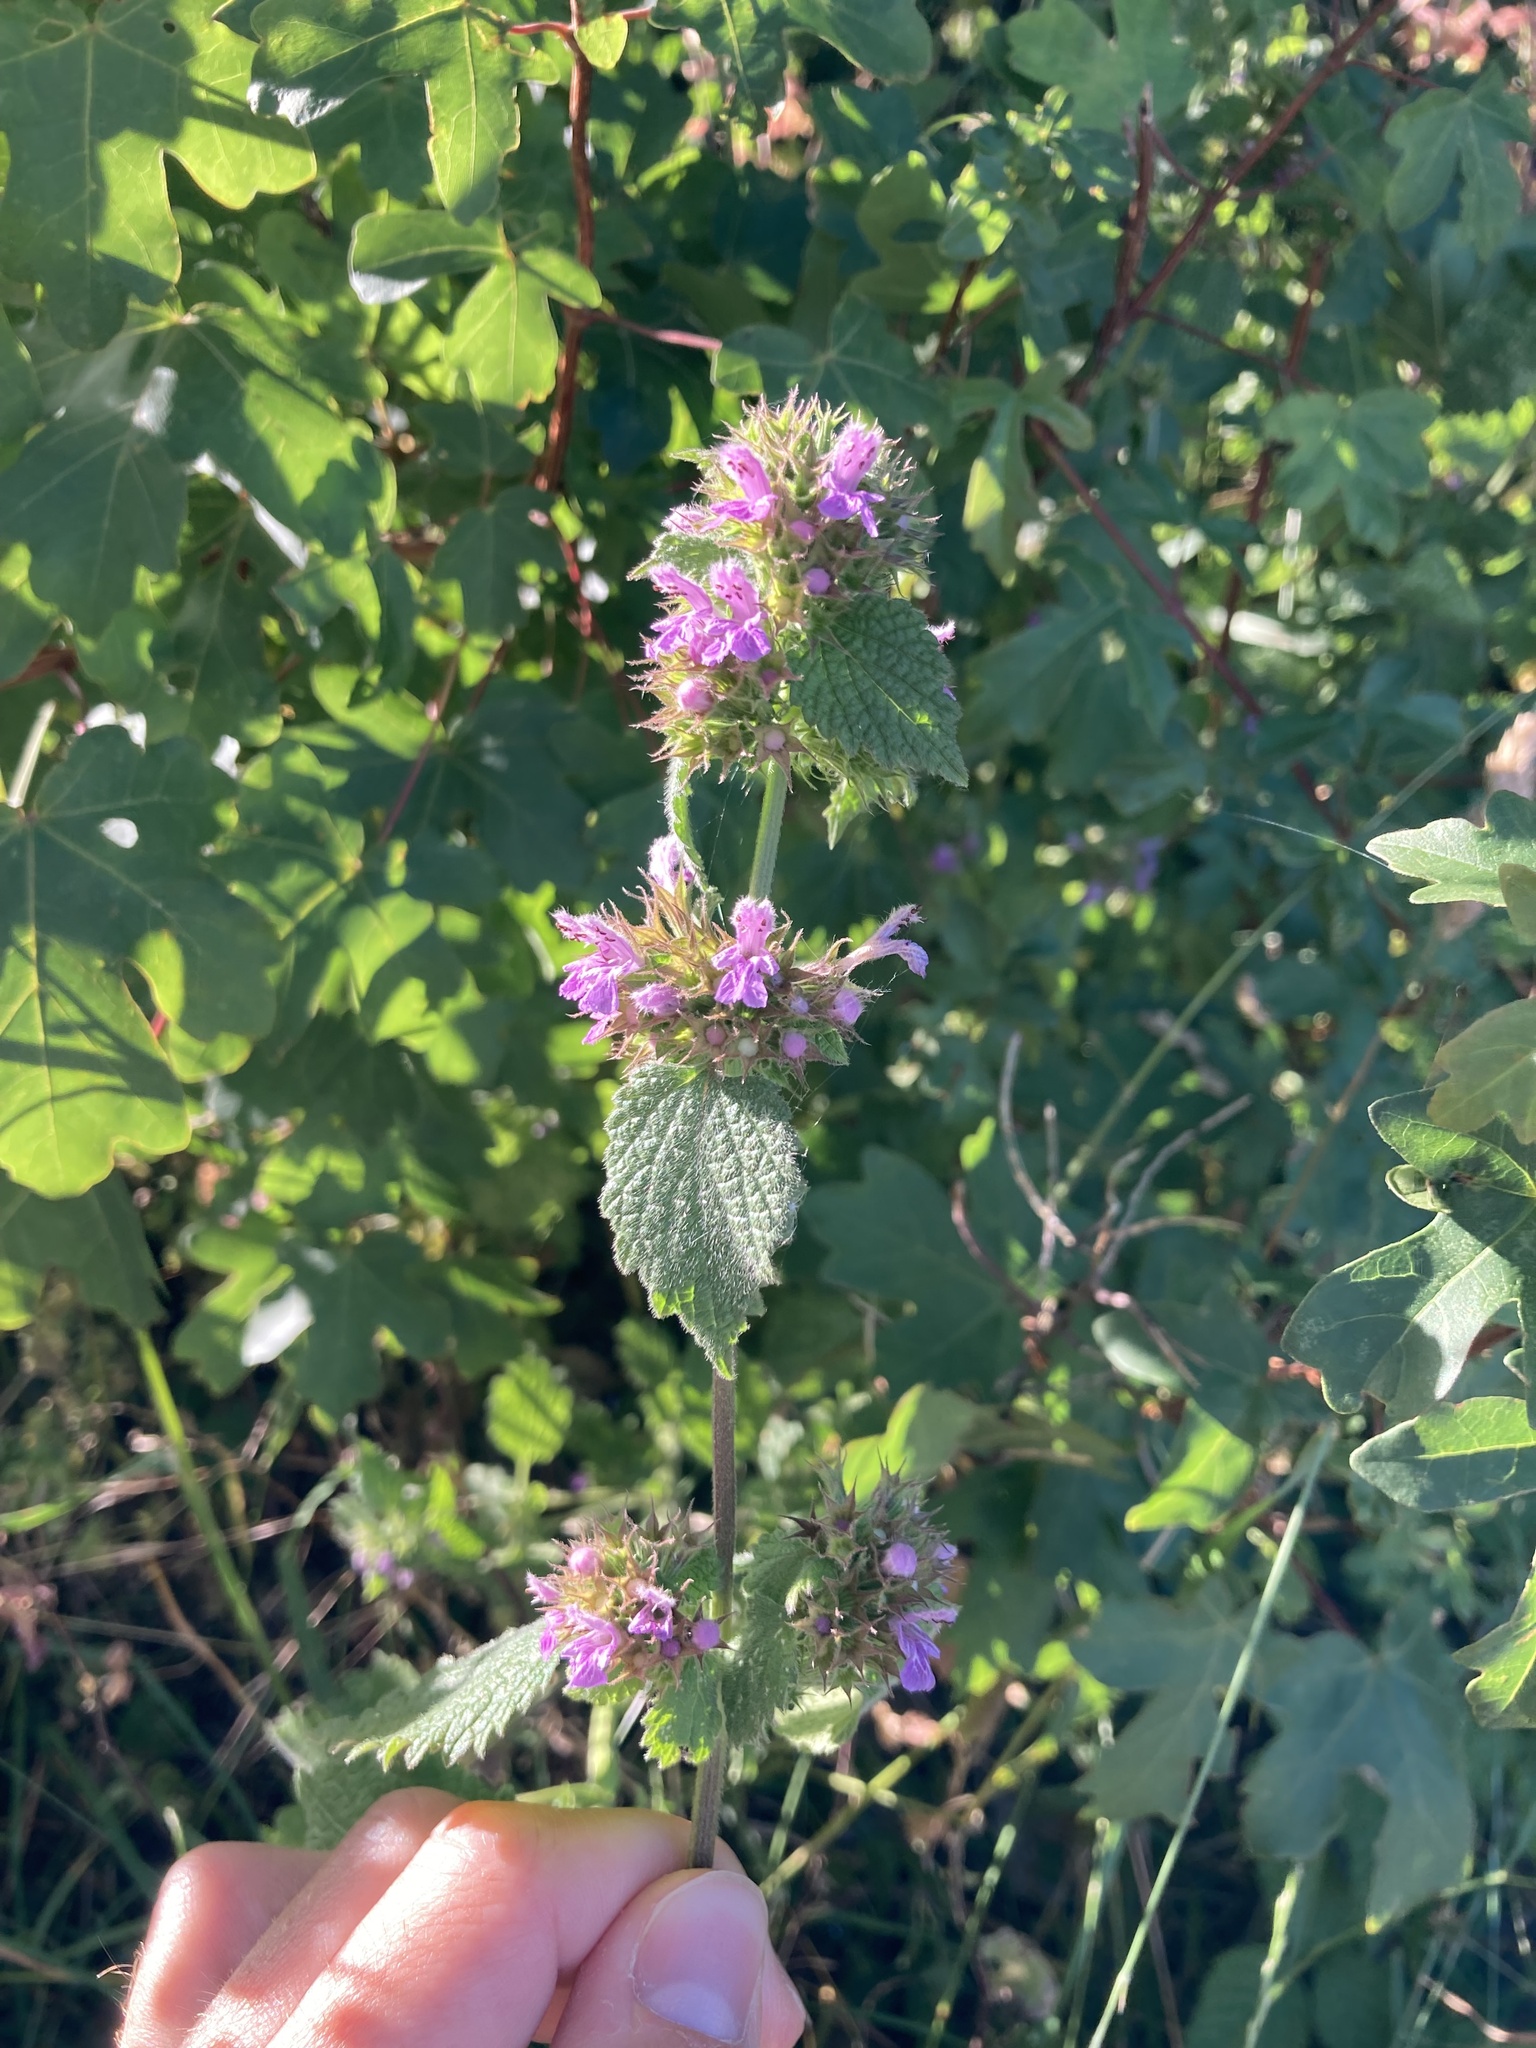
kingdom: Plantae
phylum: Tracheophyta
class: Magnoliopsida
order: Lamiales
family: Lamiaceae
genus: Ballota
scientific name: Ballota nigra
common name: Black horehound
